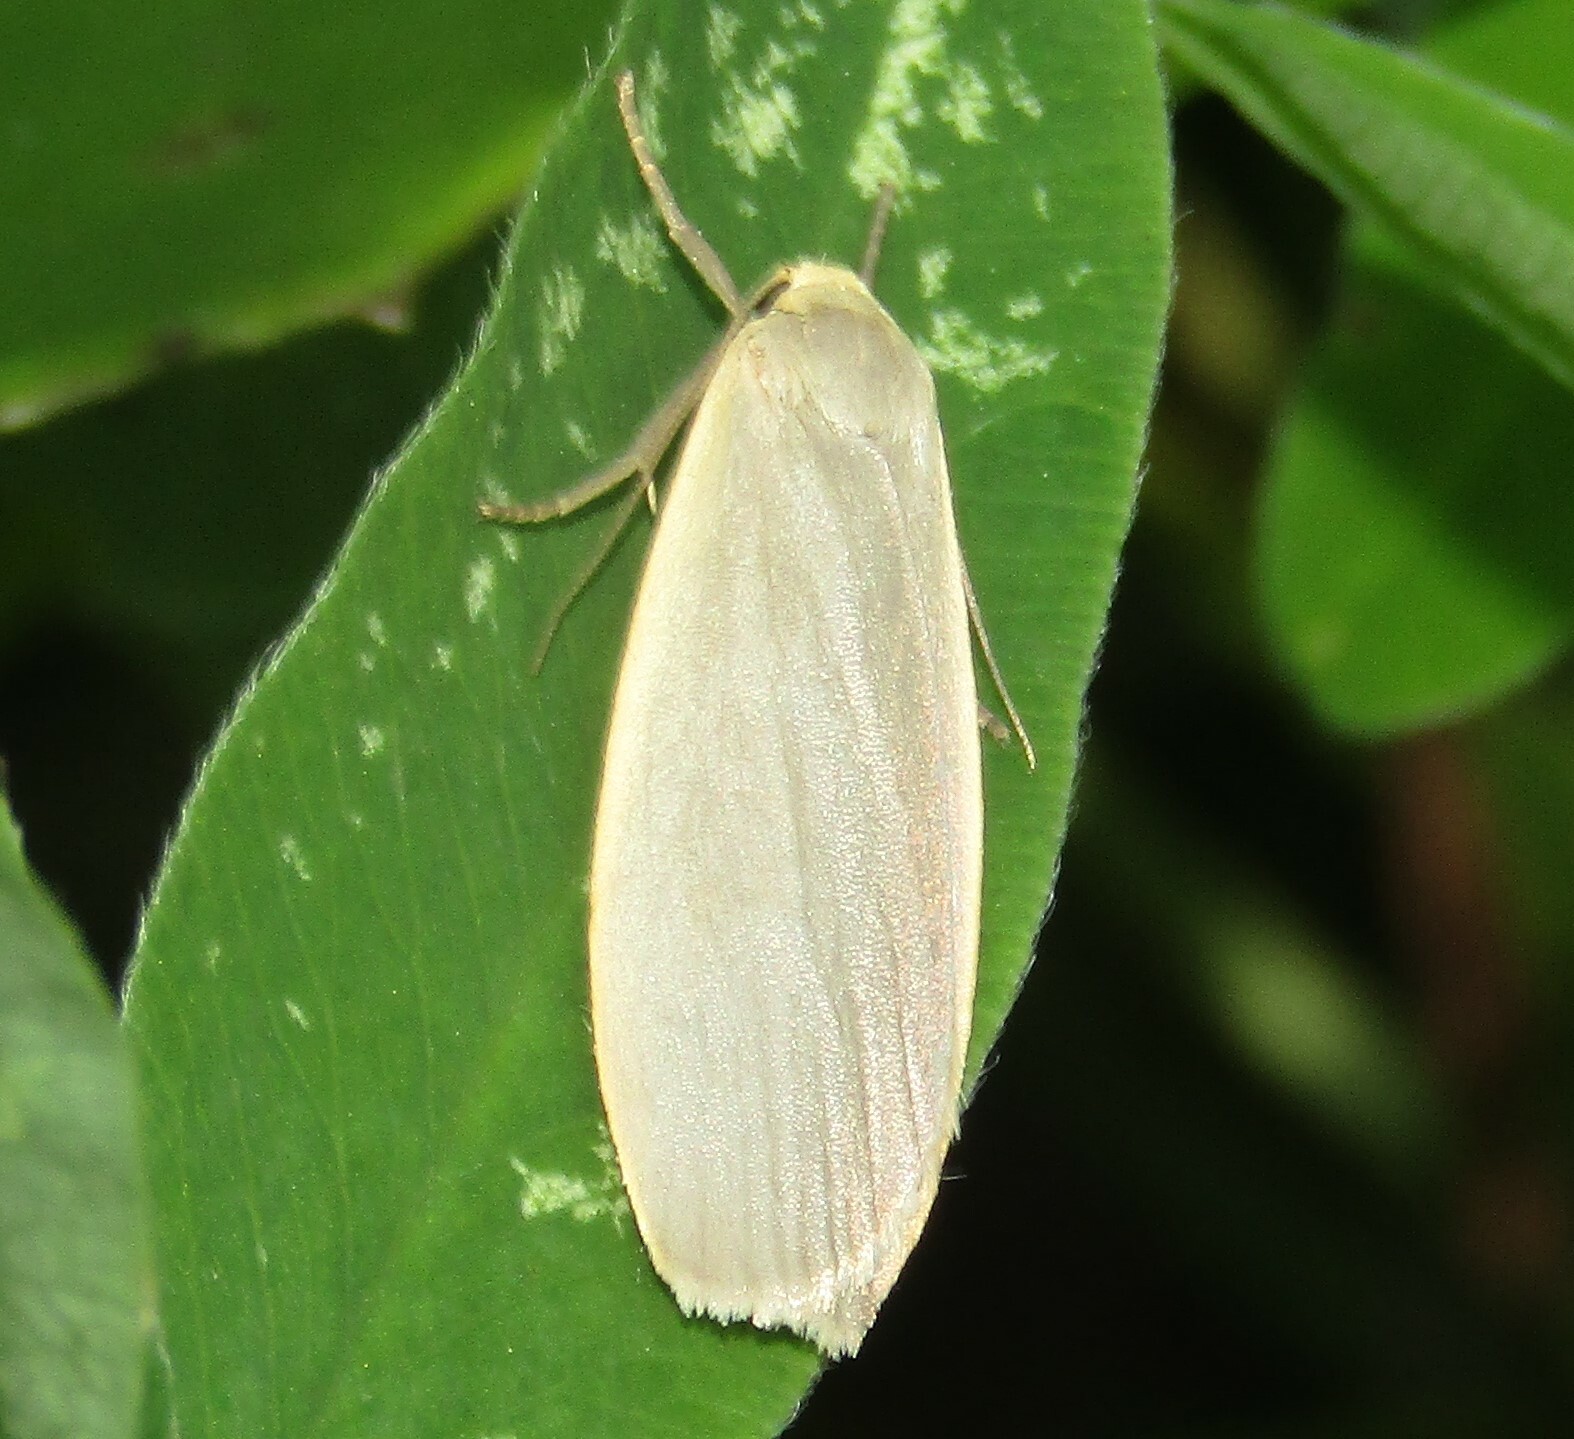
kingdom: Animalia
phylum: Arthropoda
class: Insecta
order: Lepidoptera
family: Erebidae
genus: Collita
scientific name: Collita griseola
